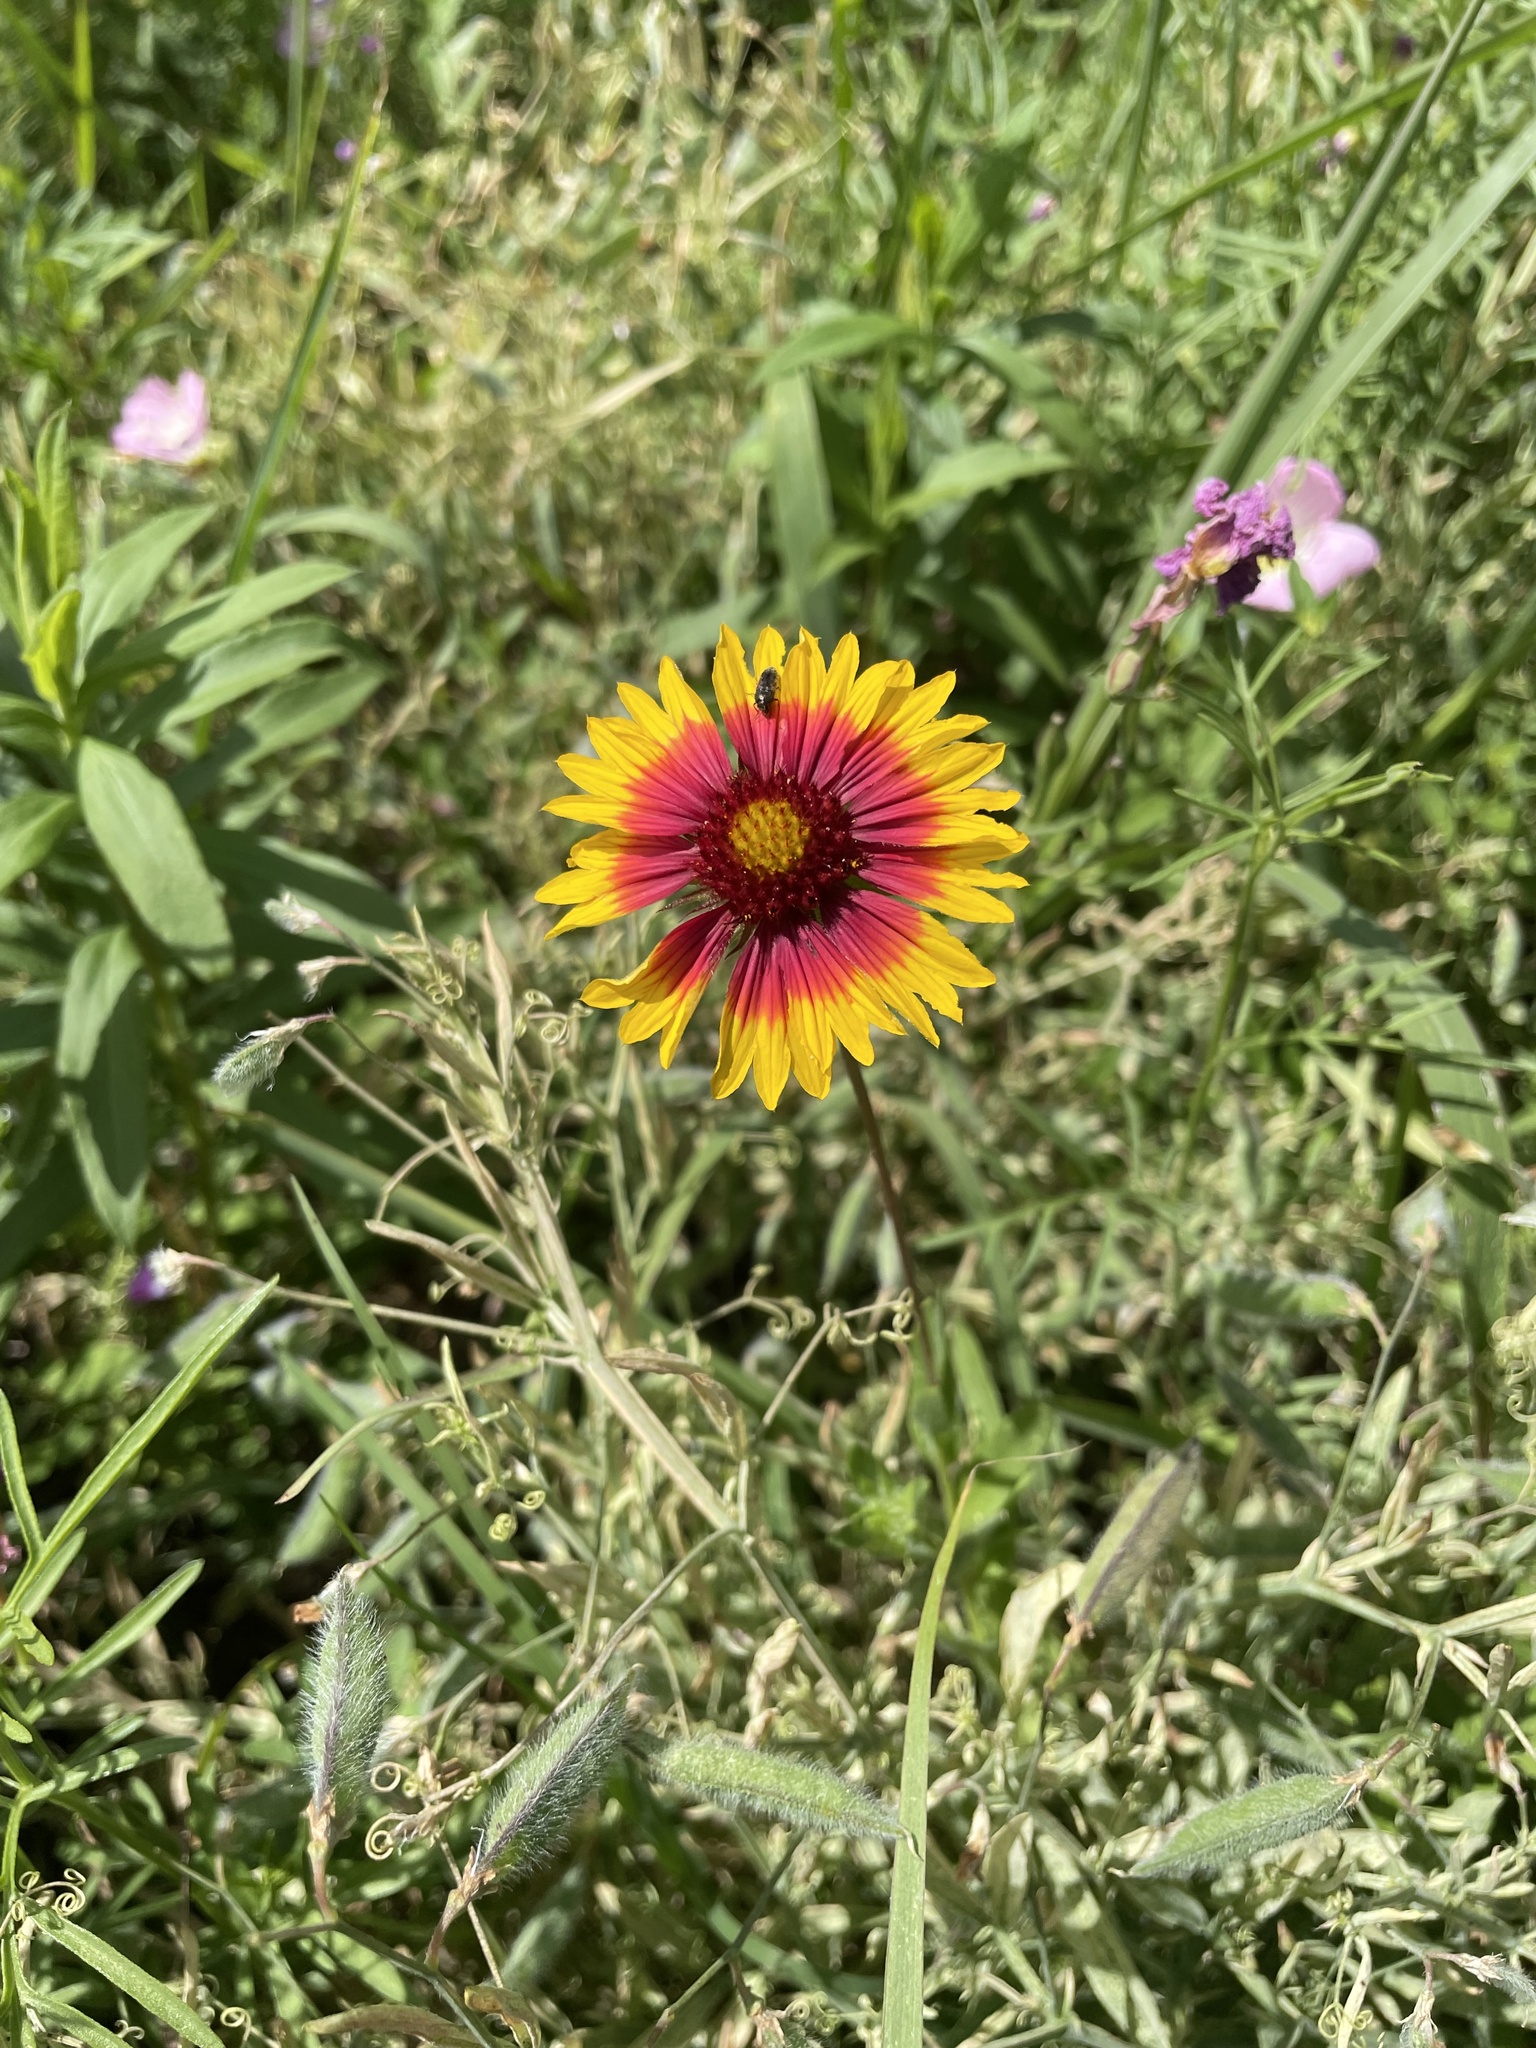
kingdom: Plantae
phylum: Tracheophyta
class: Magnoliopsida
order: Asterales
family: Asteraceae
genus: Gaillardia
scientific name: Gaillardia pulchella
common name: Firewheel
